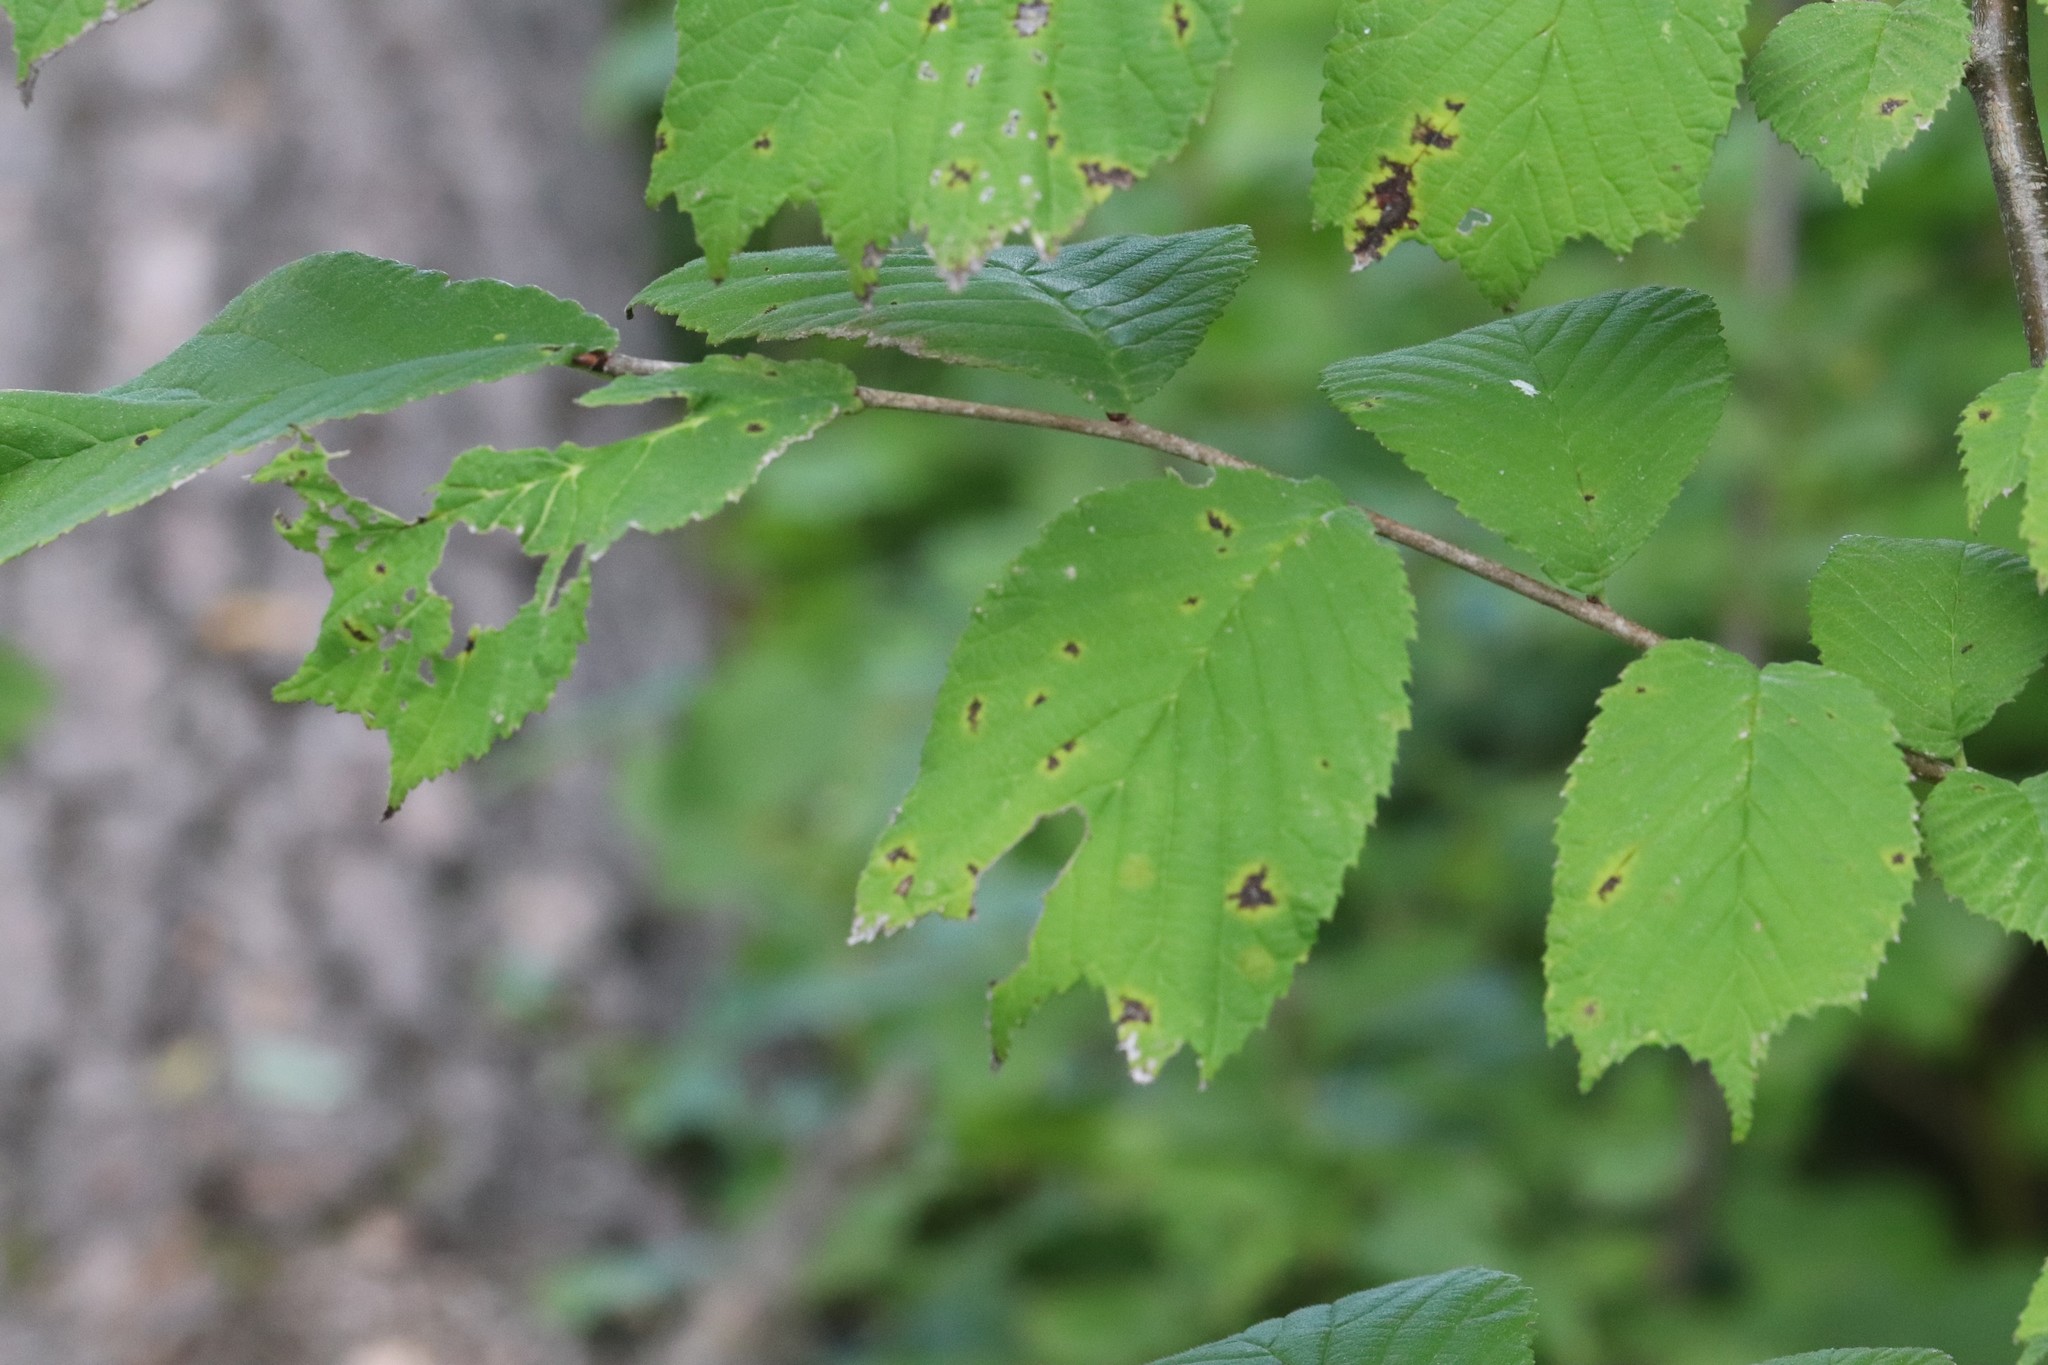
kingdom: Plantae
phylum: Tracheophyta
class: Magnoliopsida
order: Rosales
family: Ulmaceae
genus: Ulmus
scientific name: Ulmus laciniata
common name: Japanese elm
